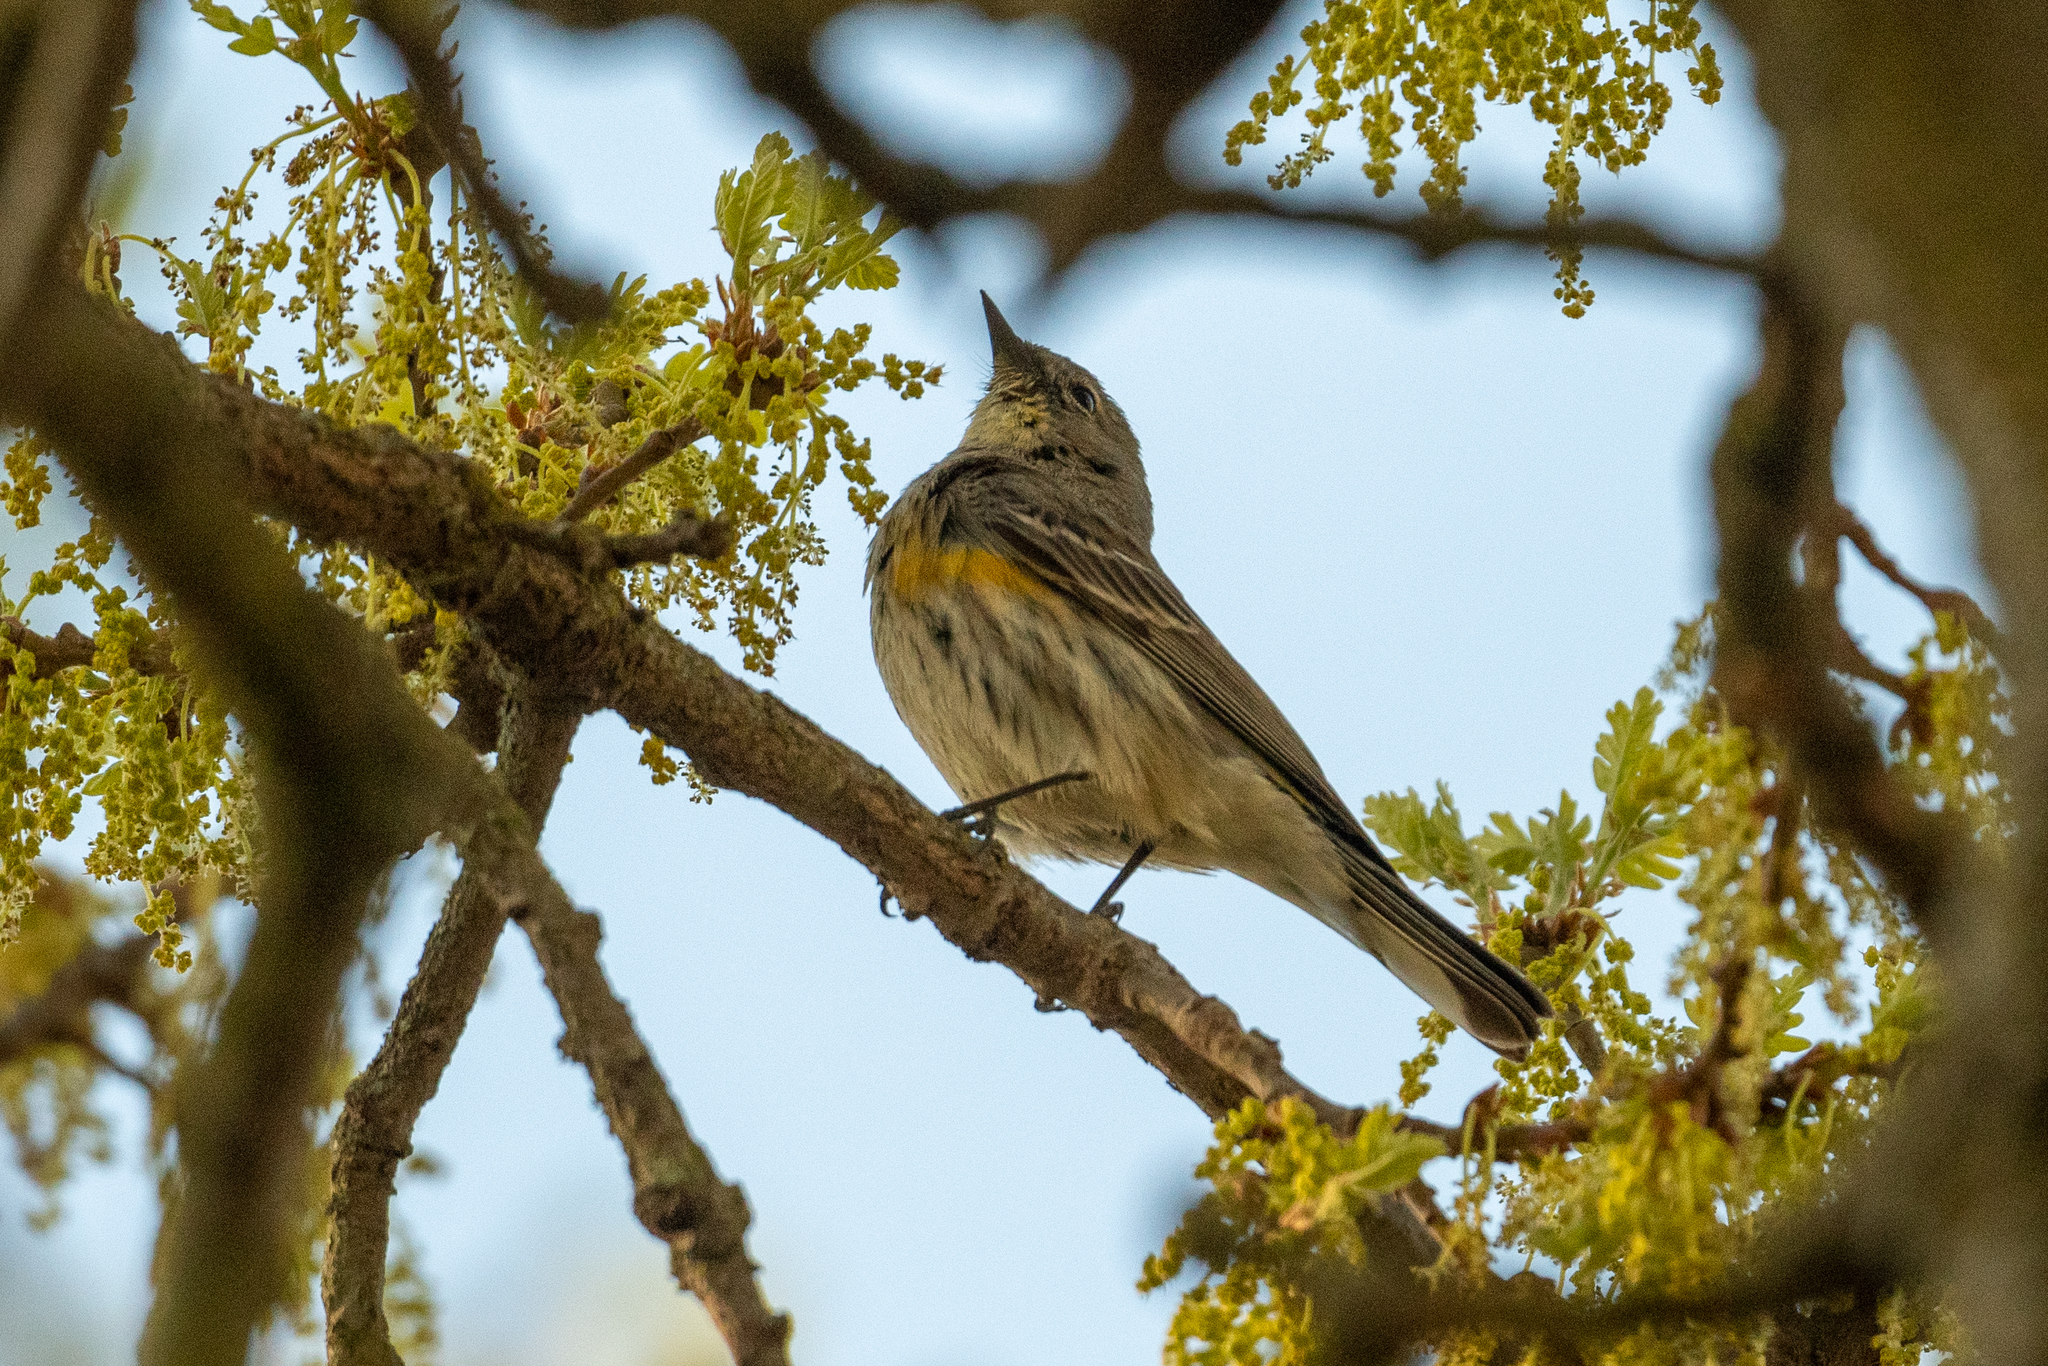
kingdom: Animalia
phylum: Chordata
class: Aves
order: Passeriformes
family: Parulidae
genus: Setophaga
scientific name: Setophaga coronata
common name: Myrtle warbler
